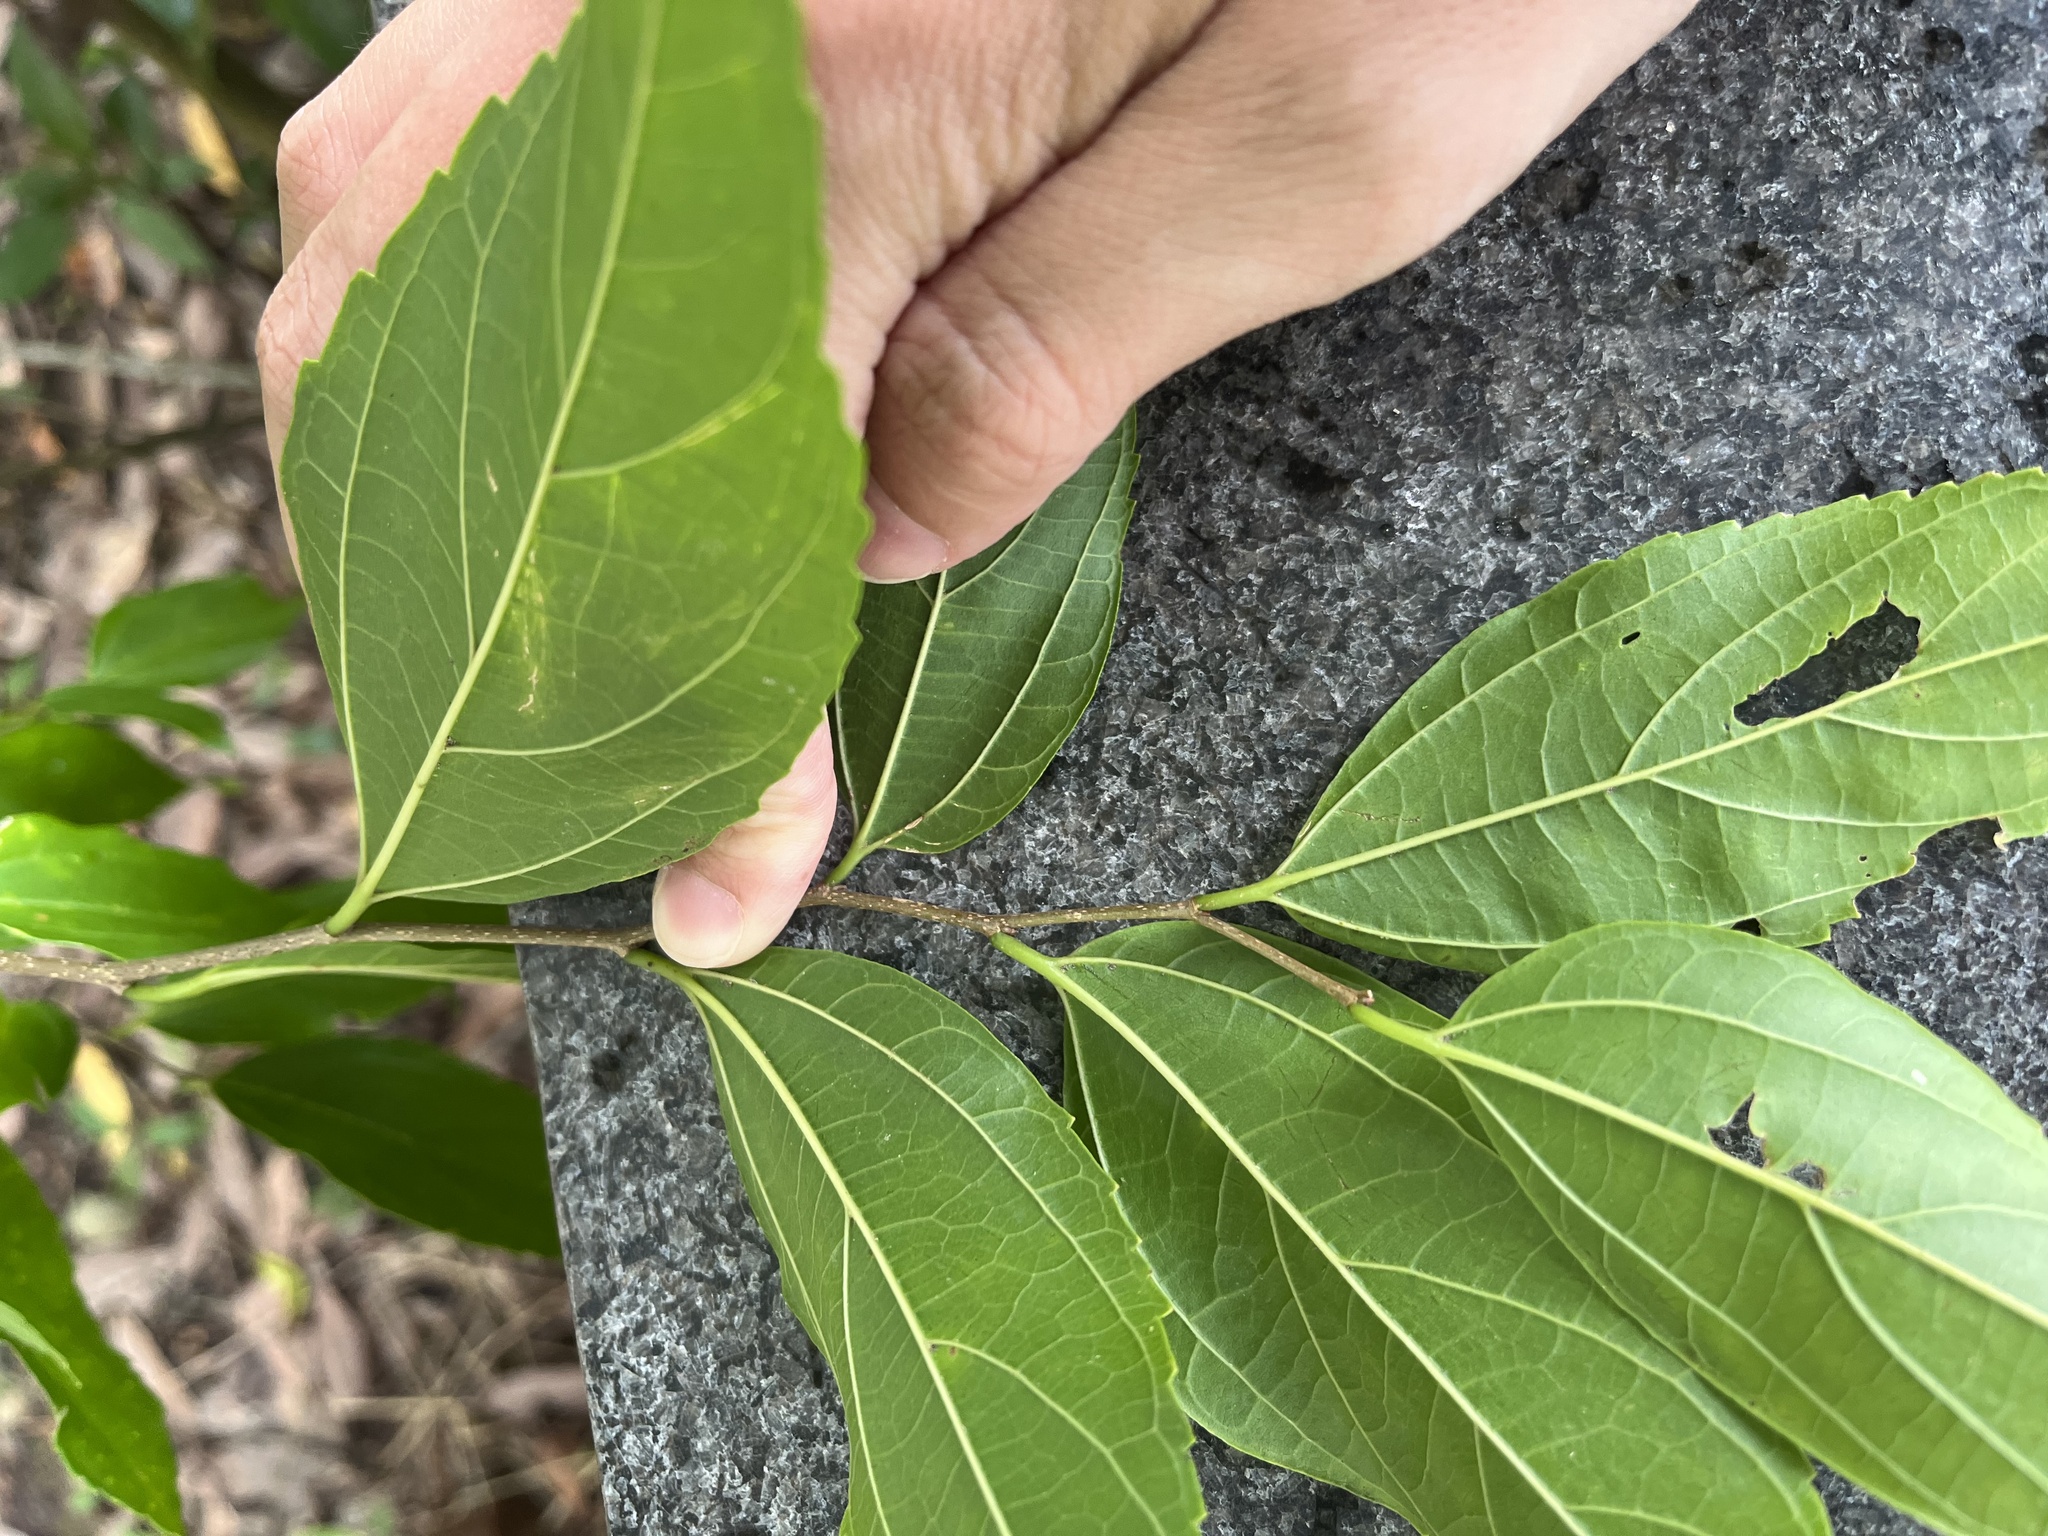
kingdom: Plantae
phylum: Tracheophyta
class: Magnoliopsida
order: Rosales
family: Cannabaceae
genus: Celtis
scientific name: Celtis tetrandra
